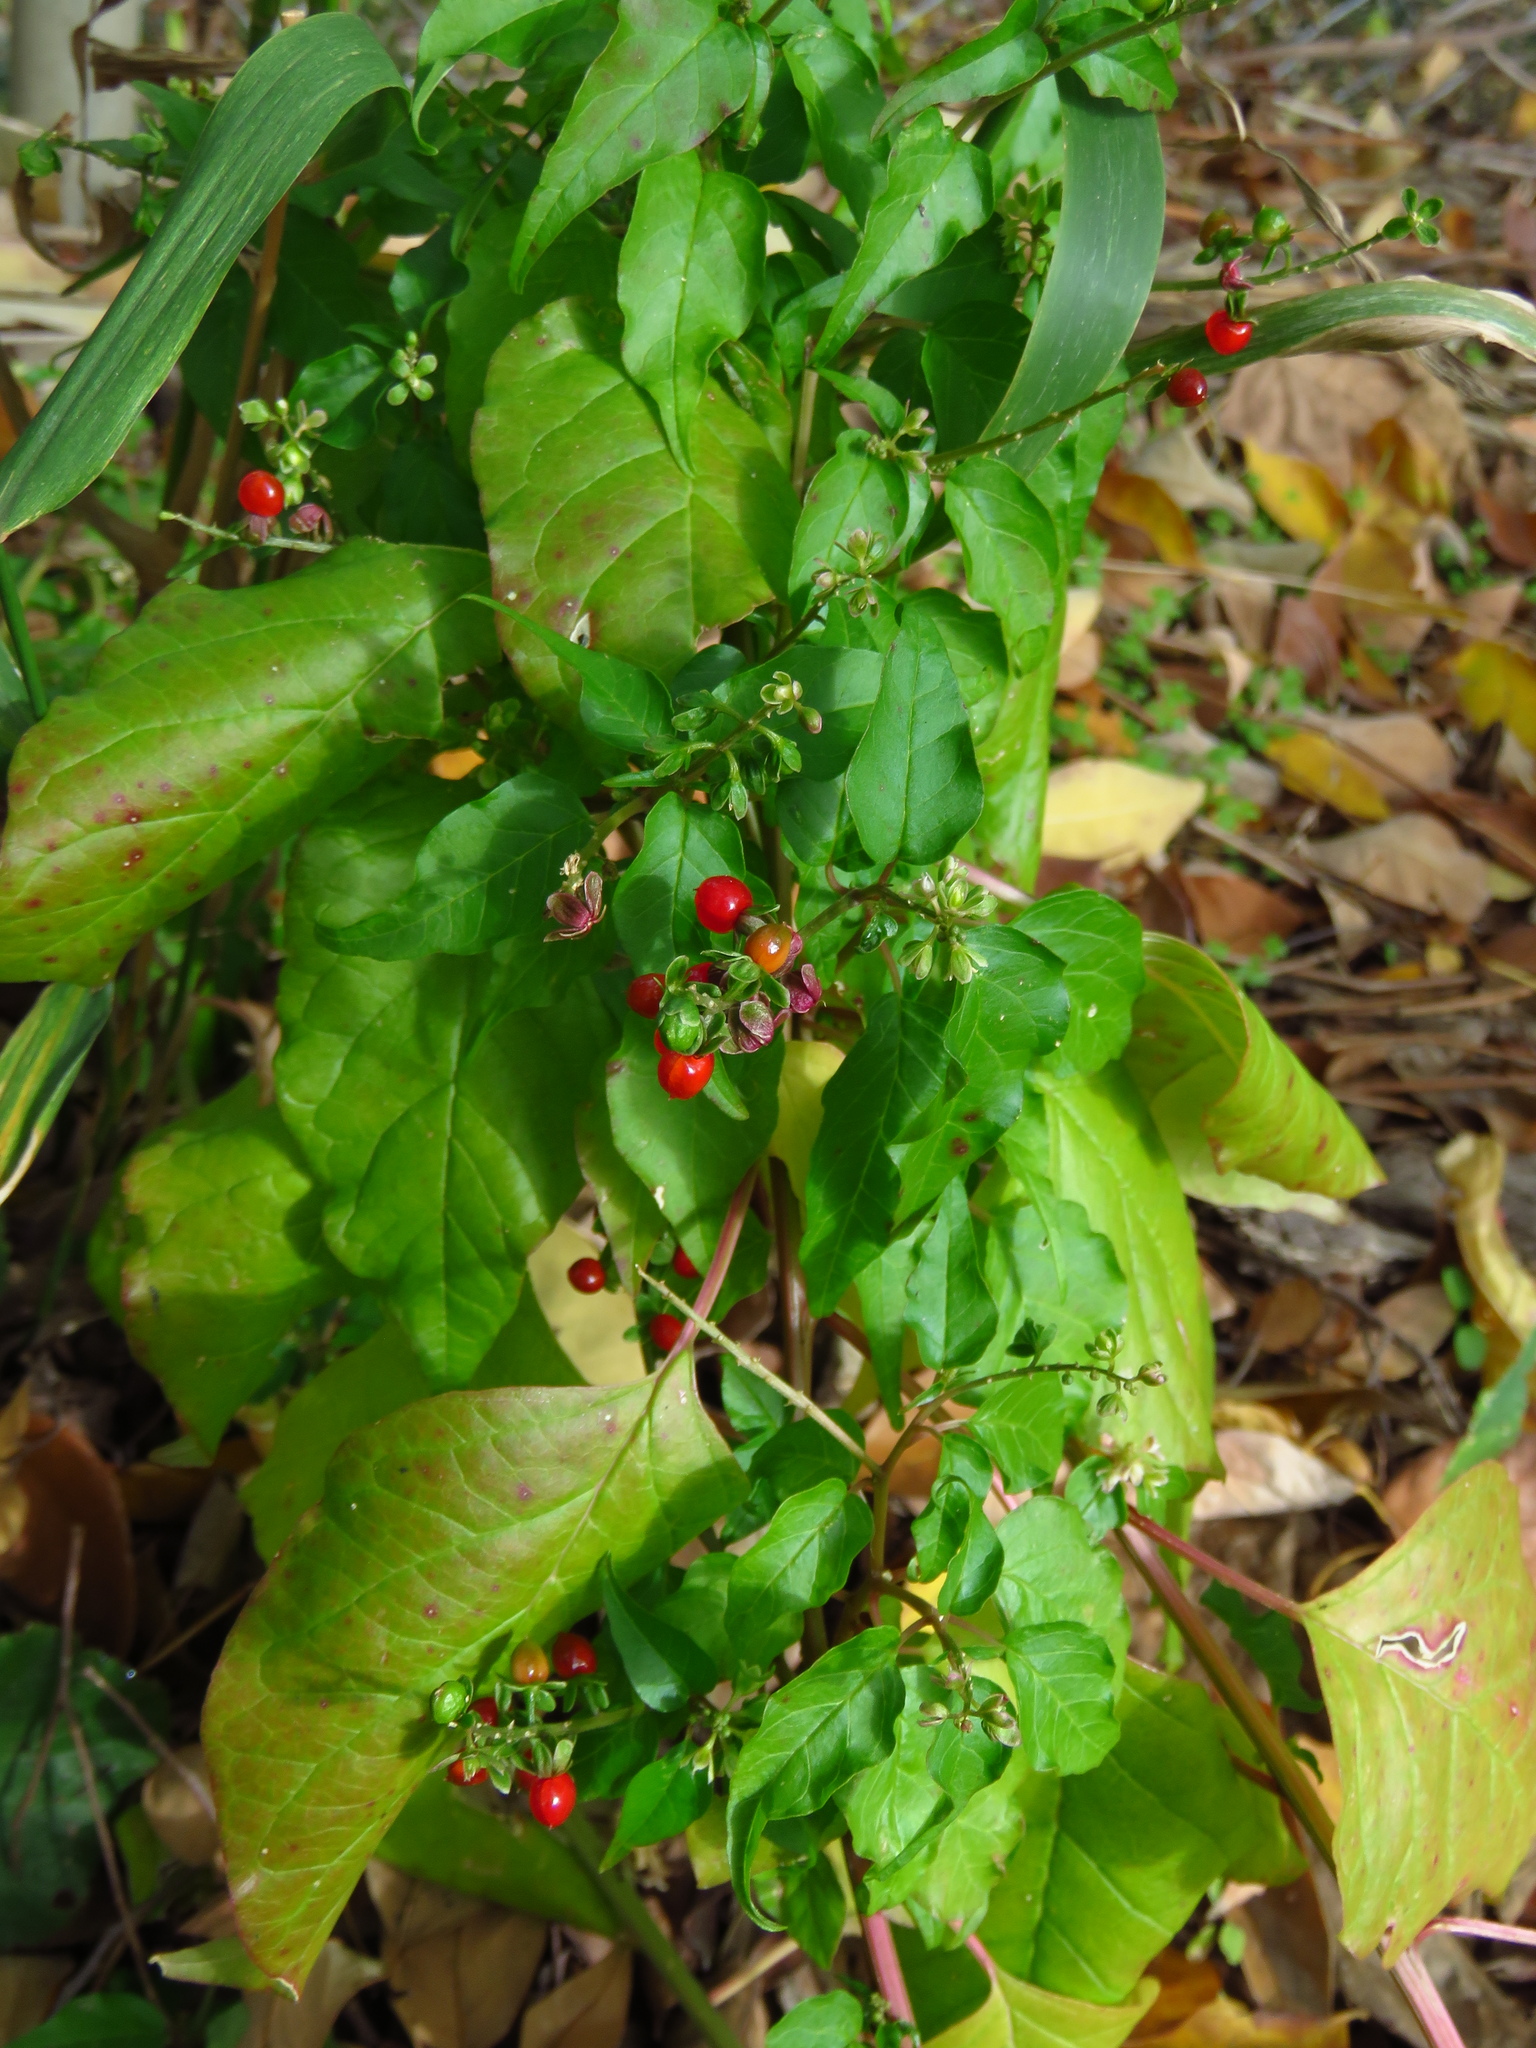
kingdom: Plantae
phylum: Tracheophyta
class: Magnoliopsida
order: Caryophyllales
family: Phytolaccaceae
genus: Rivina
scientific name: Rivina humilis
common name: Rougeplant
